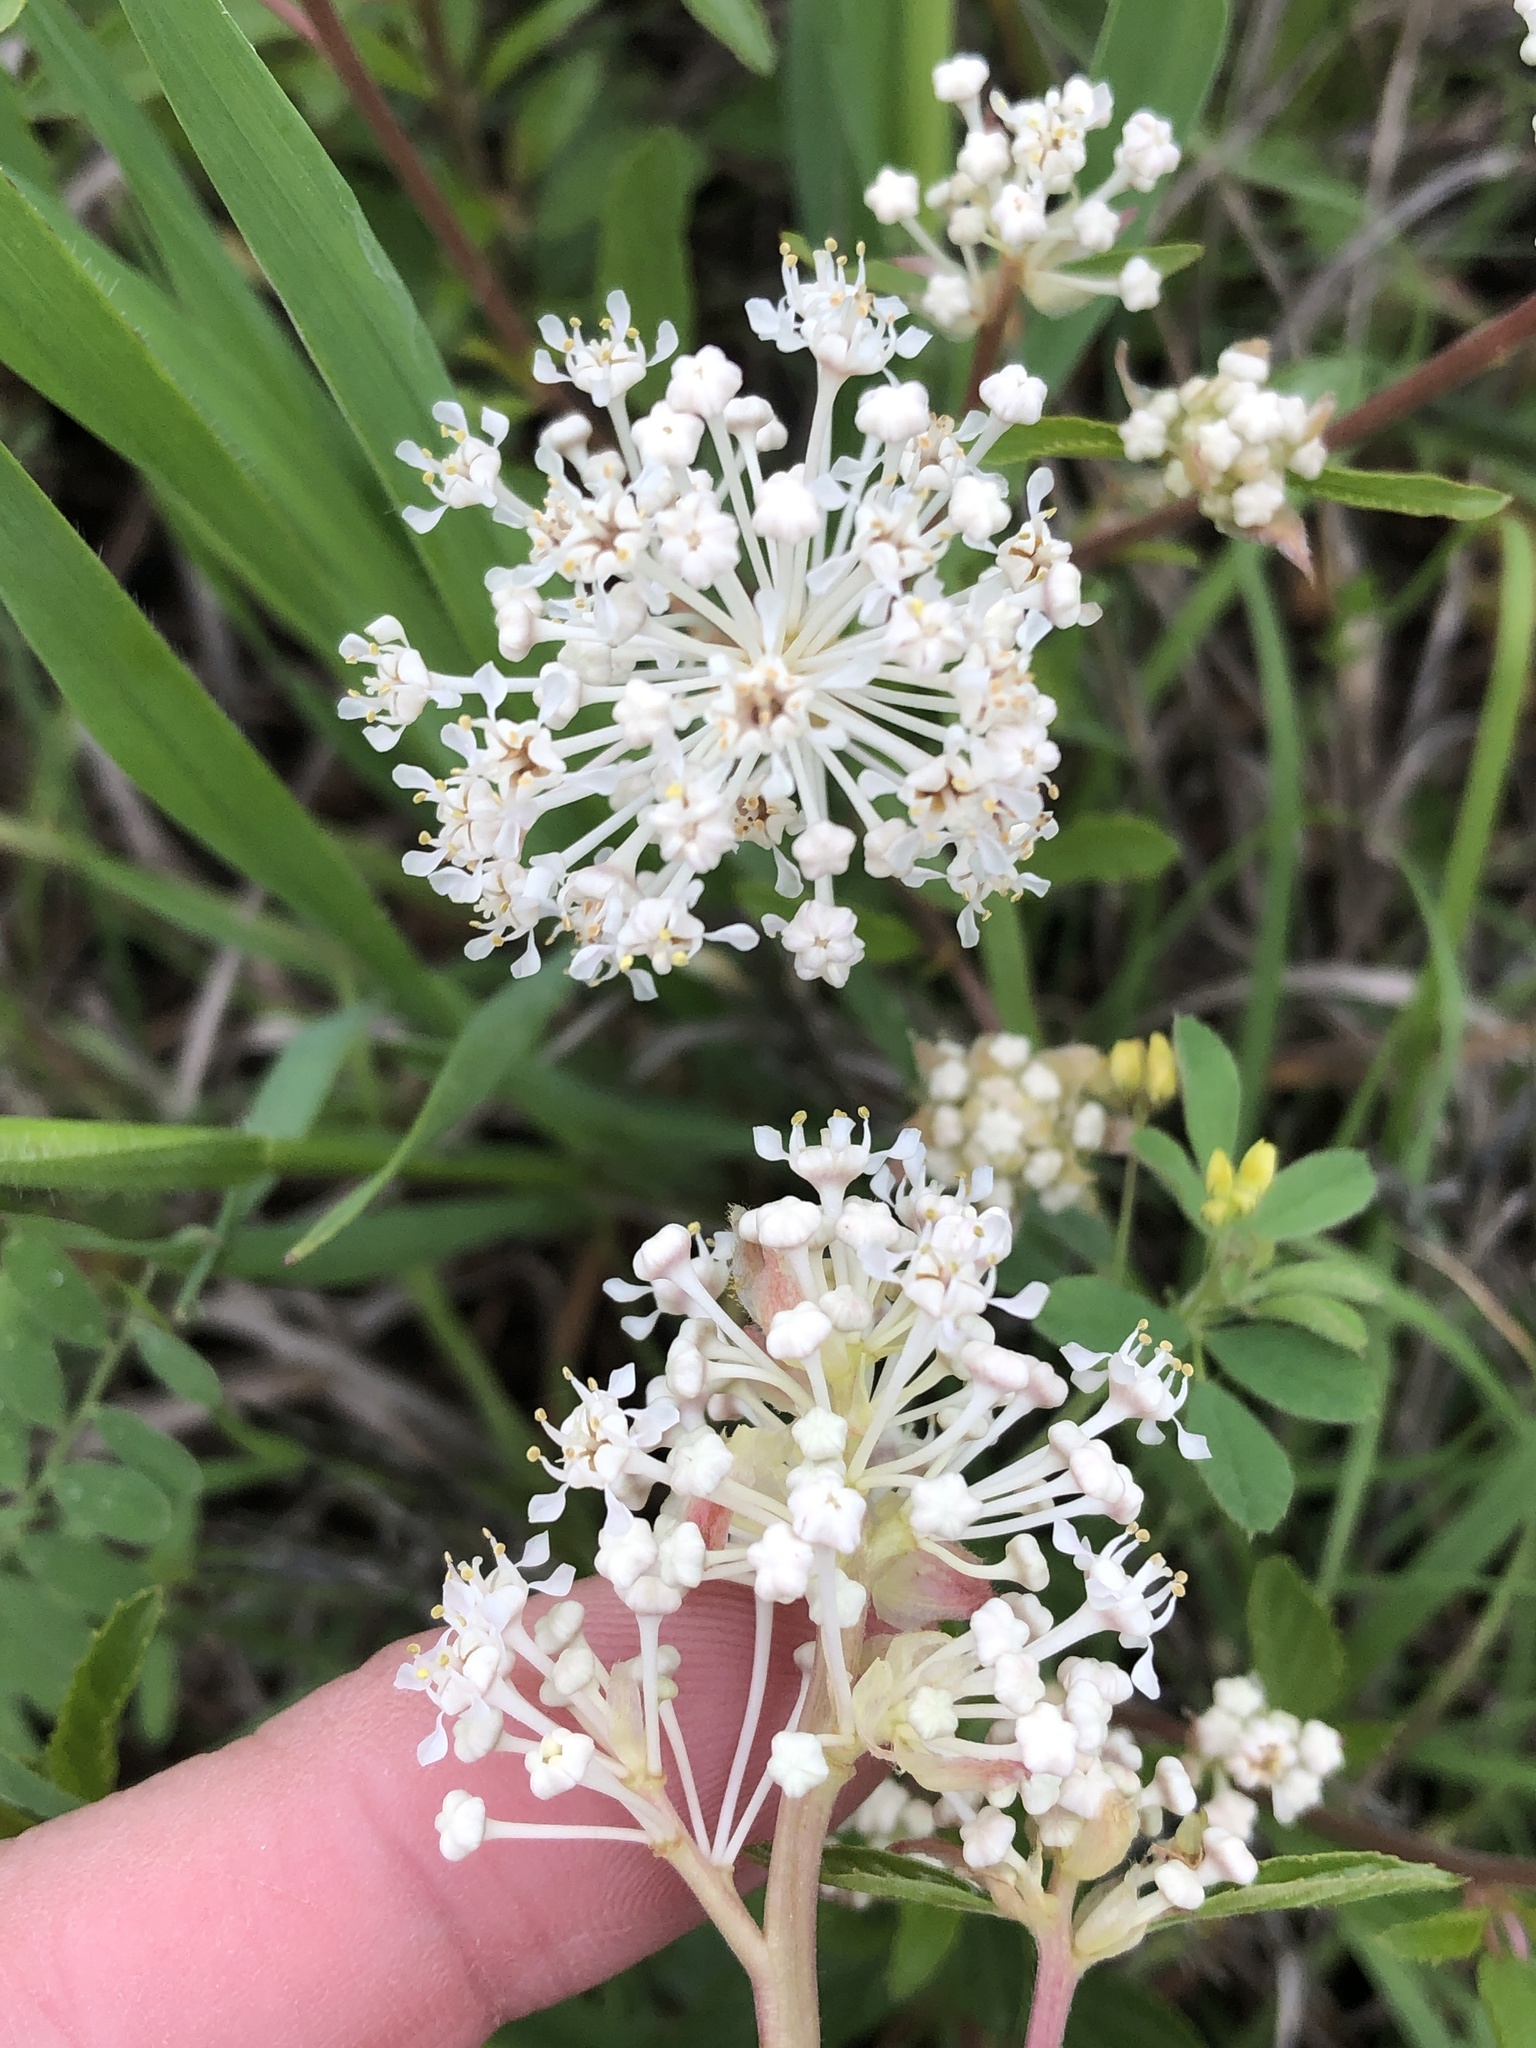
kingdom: Plantae
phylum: Tracheophyta
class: Magnoliopsida
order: Rosales
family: Rhamnaceae
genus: Ceanothus
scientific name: Ceanothus herbaceus
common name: Inland ceanothus
